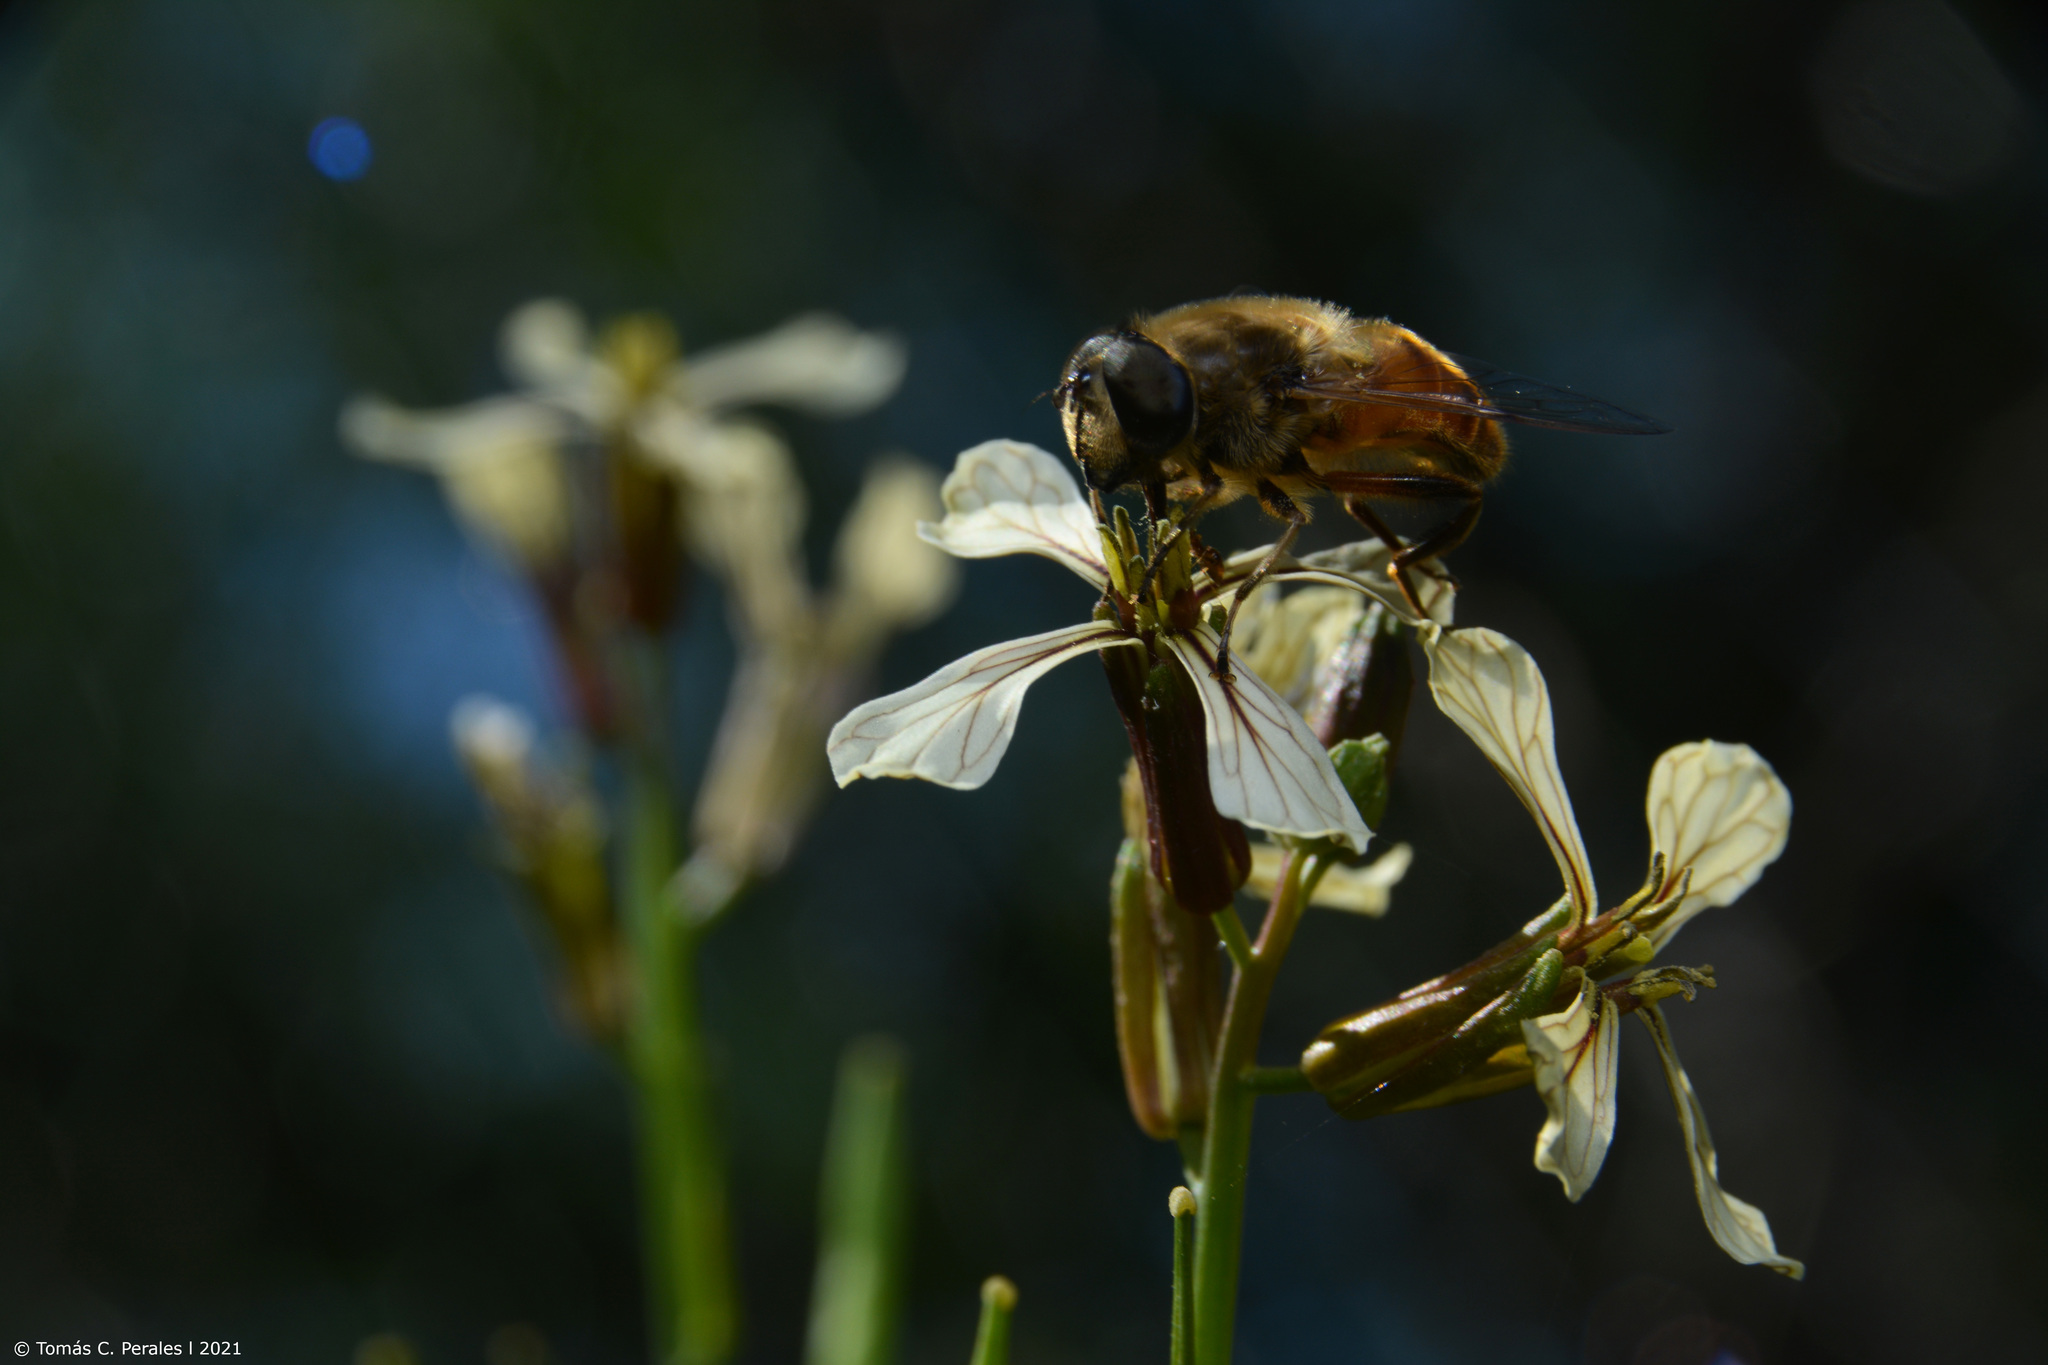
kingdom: Animalia
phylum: Arthropoda
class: Insecta
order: Diptera
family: Syrphidae
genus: Eristalis
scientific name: Eristalis tenax
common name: Drone fly
